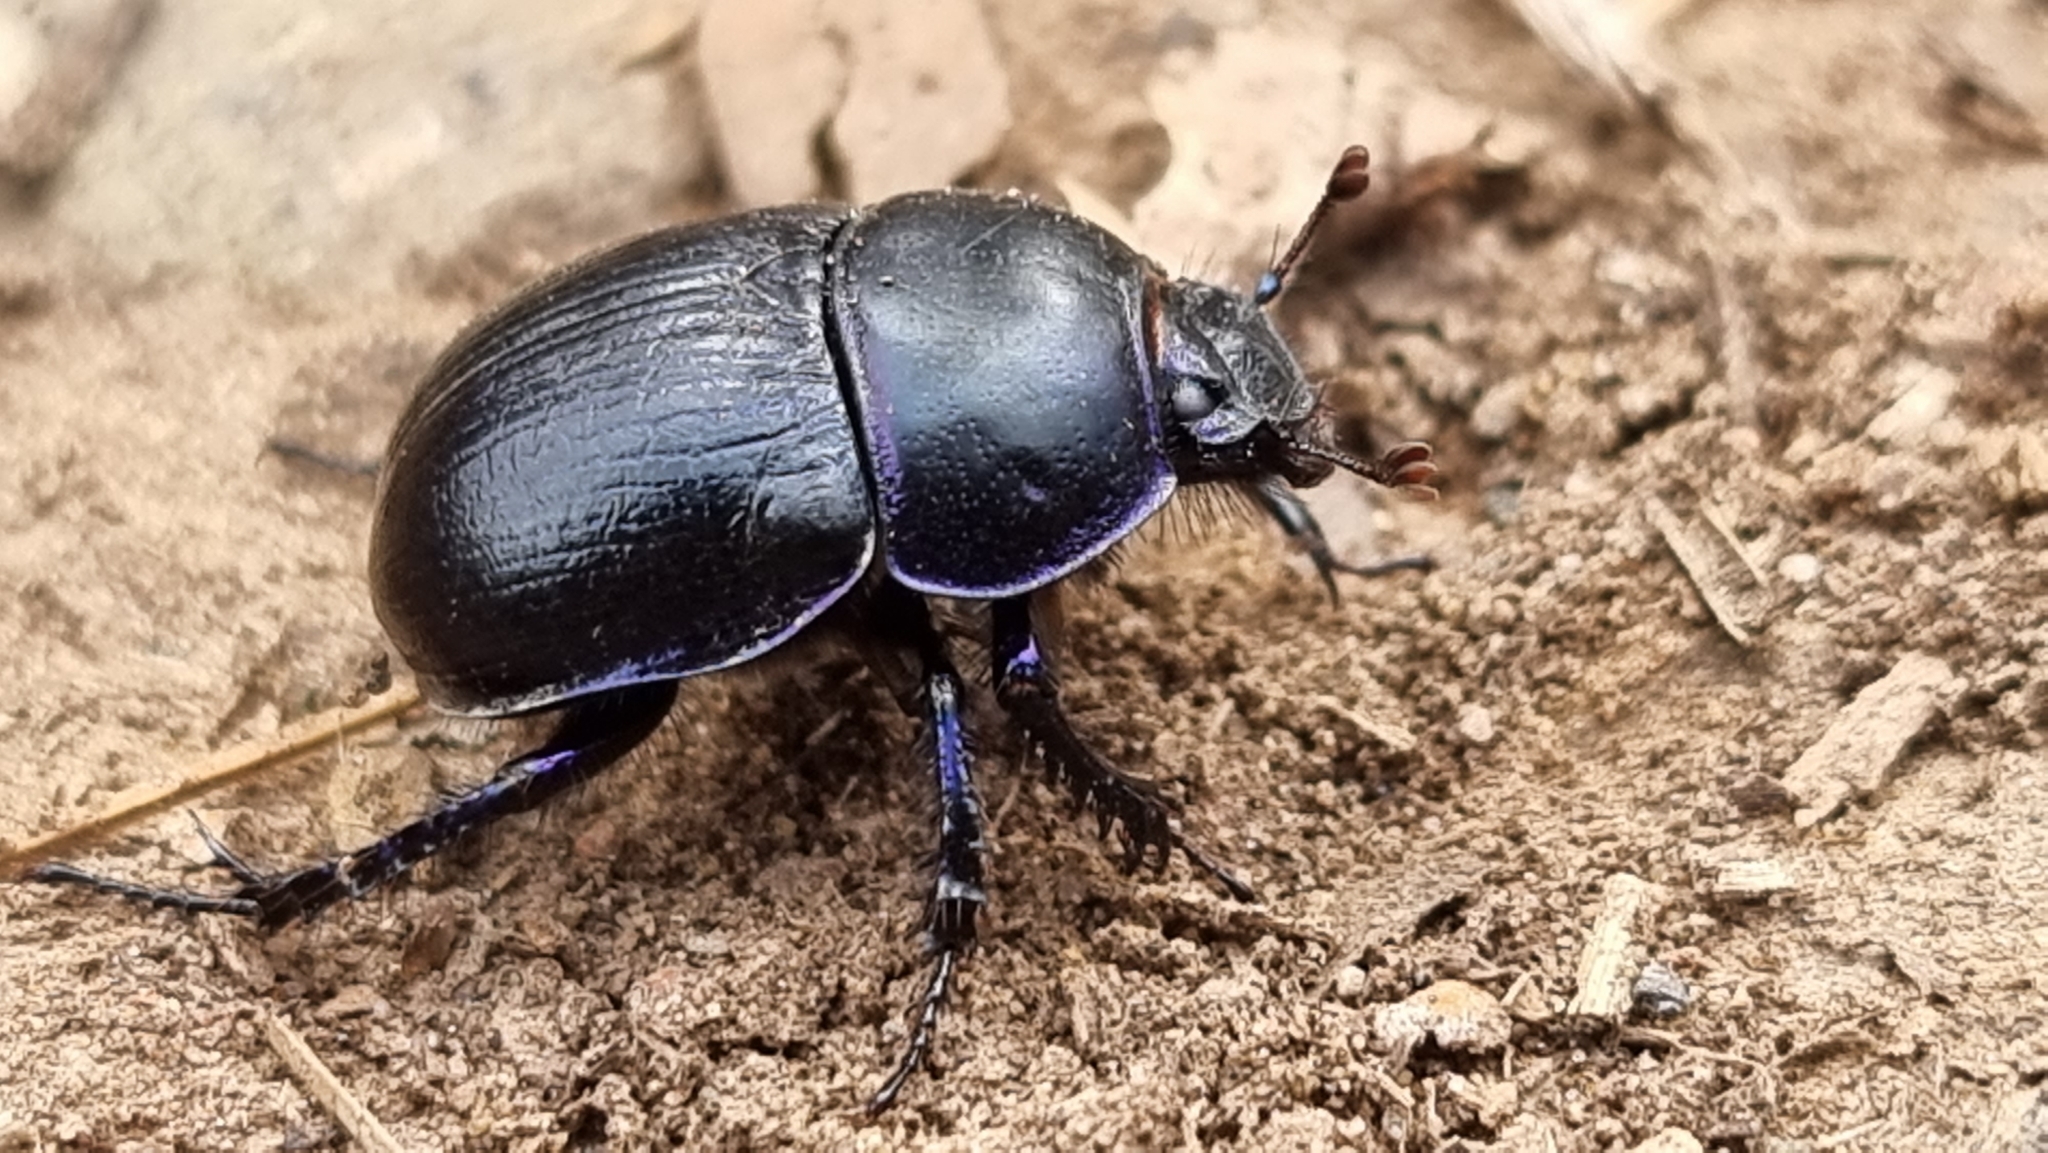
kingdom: Animalia
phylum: Arthropoda
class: Insecta
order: Coleoptera
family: Geotrupidae
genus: Anoplotrupes
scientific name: Anoplotrupes stercorosus
